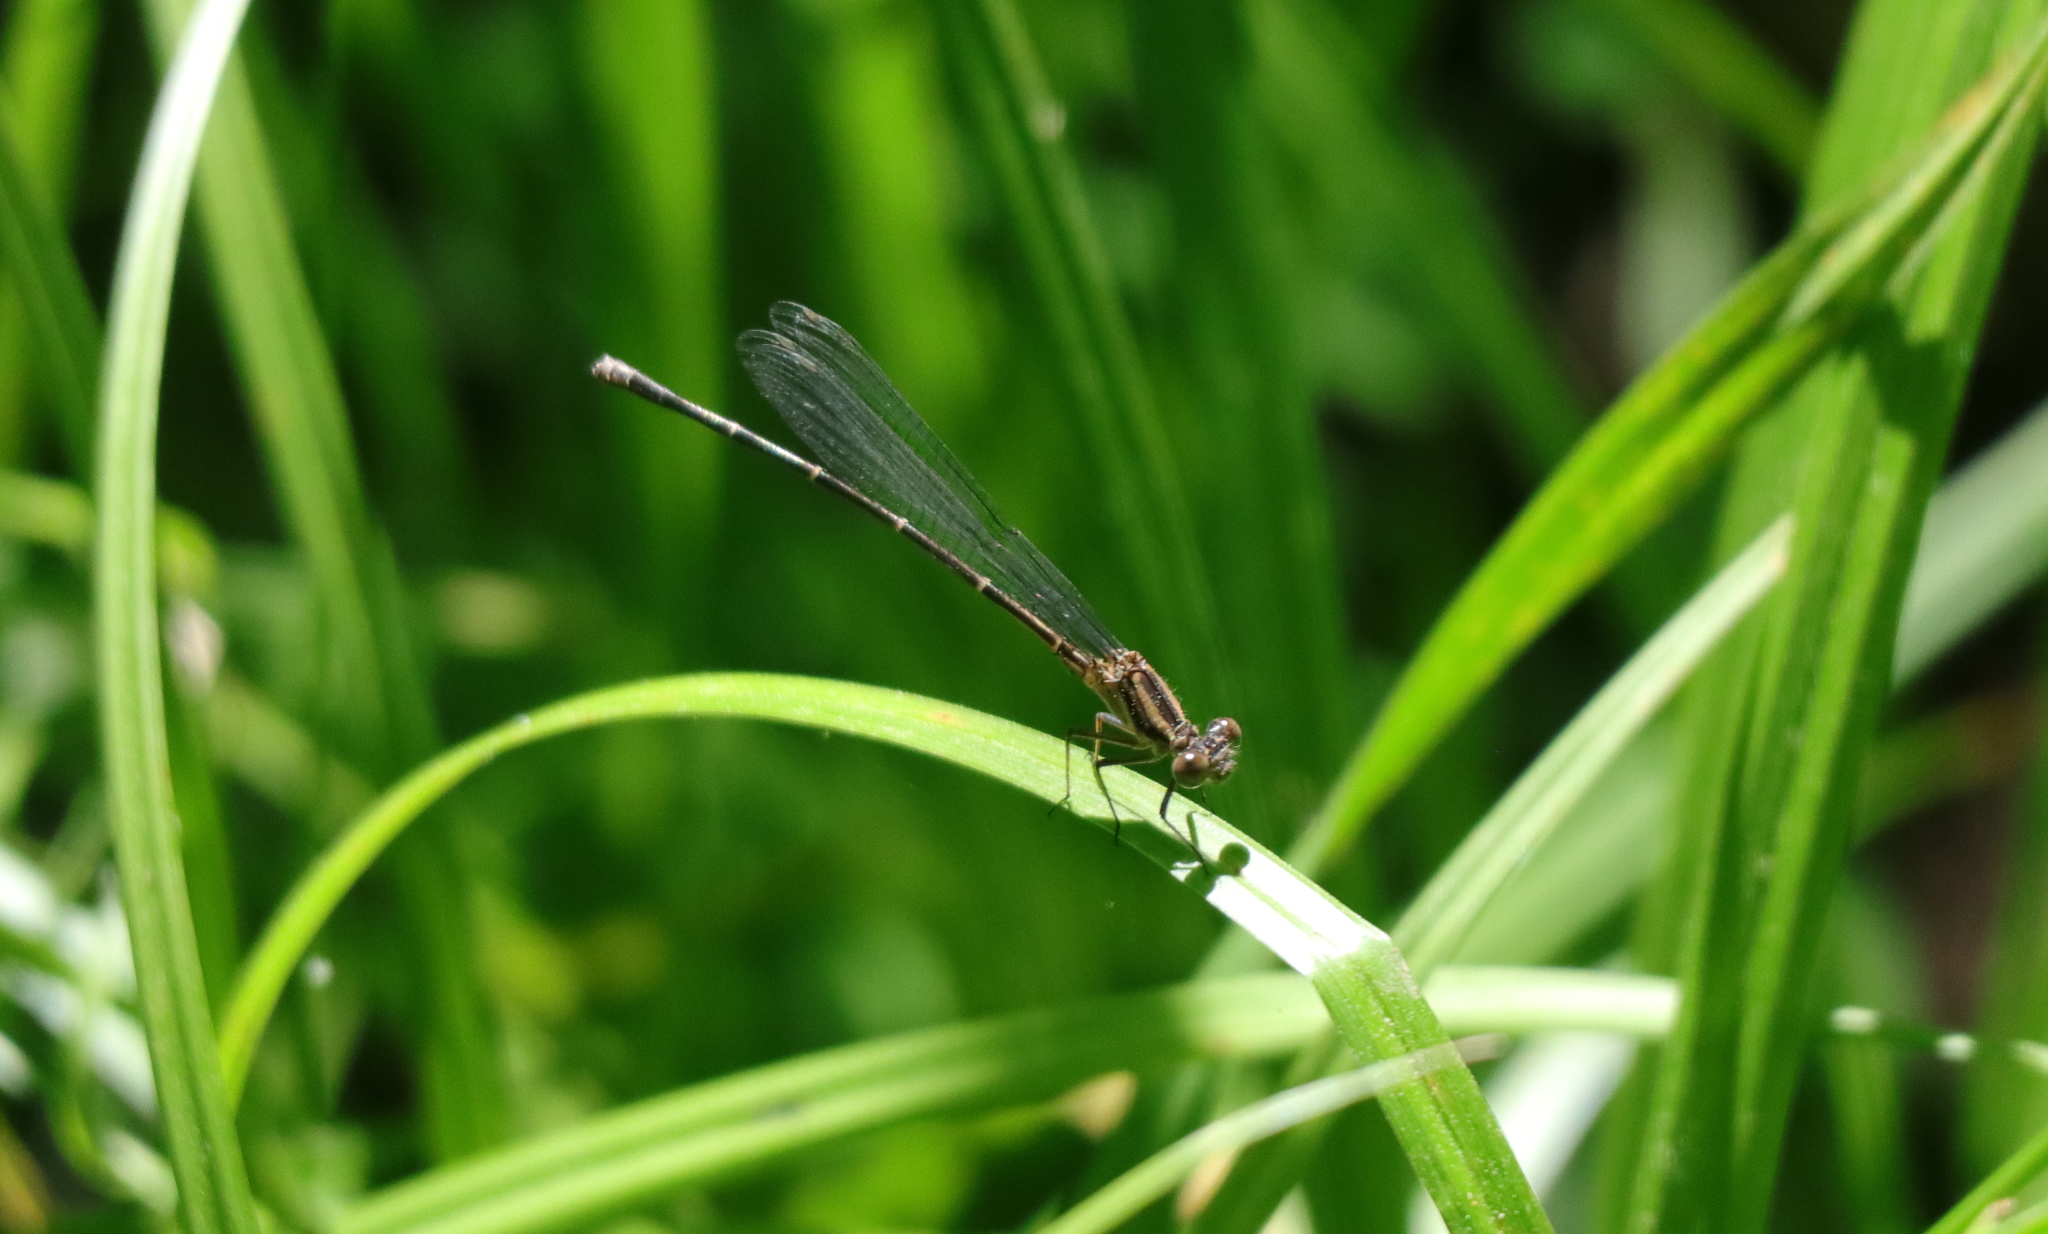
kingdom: Animalia
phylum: Arthropoda
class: Insecta
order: Odonata
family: Coenagrionidae
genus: Argia
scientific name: Argia moesta
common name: Powdered dancer
